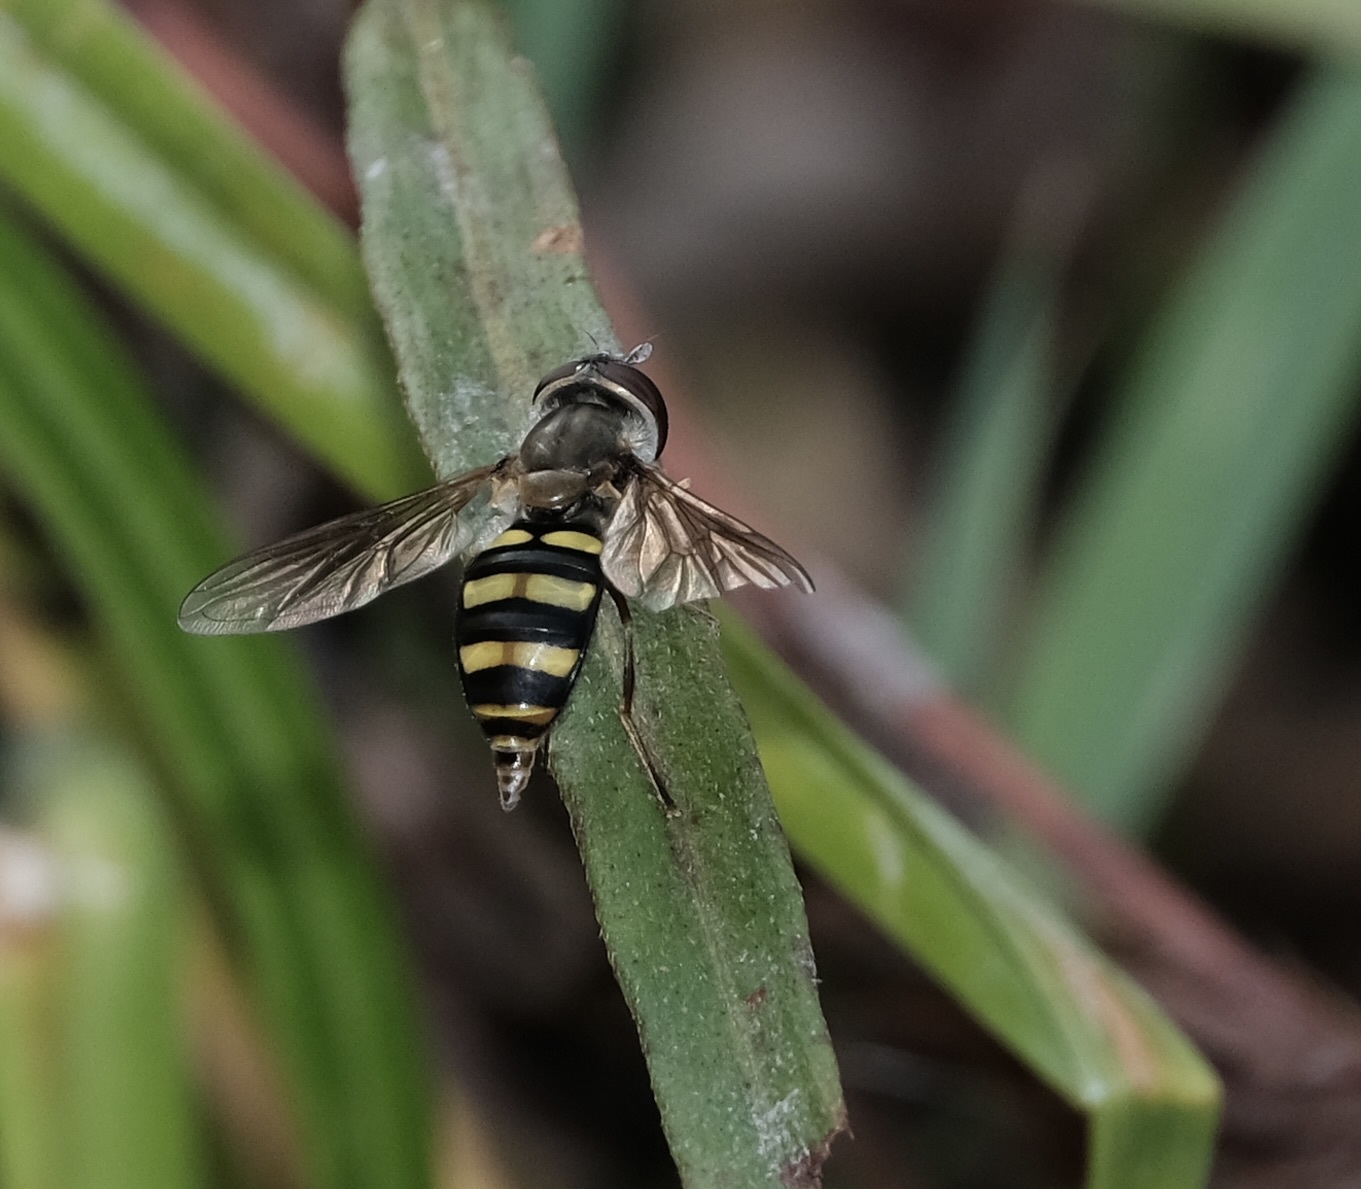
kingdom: Animalia
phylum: Arthropoda
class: Insecta
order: Diptera
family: Syrphidae
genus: Eupeodes
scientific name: Eupeodes
